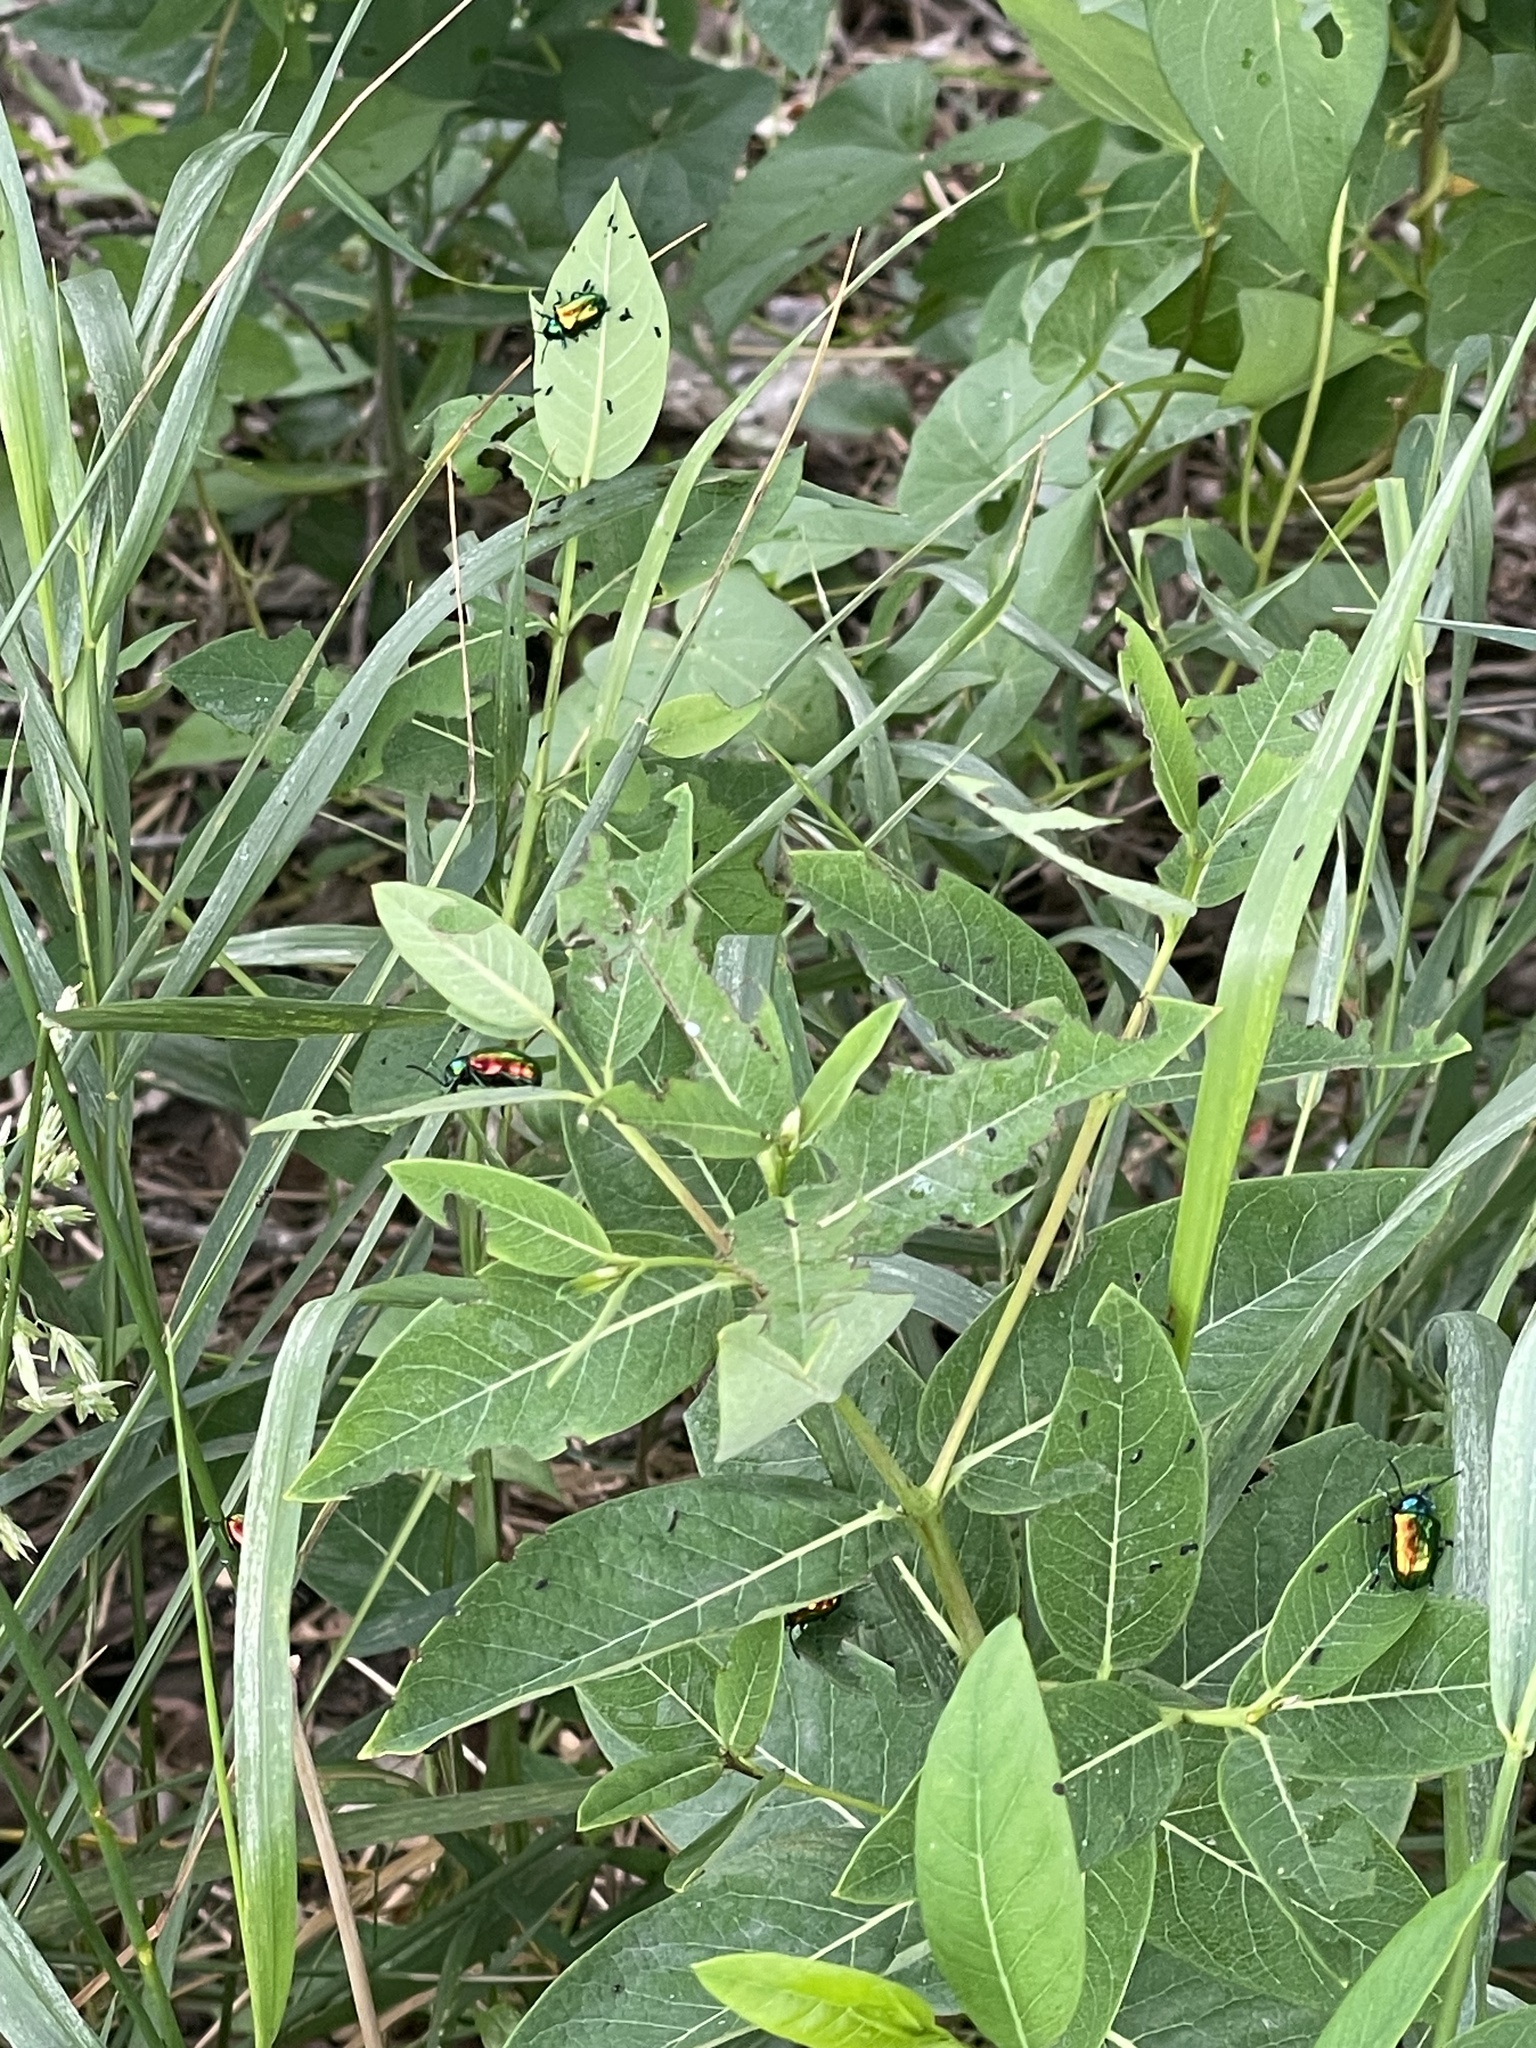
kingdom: Animalia
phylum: Arthropoda
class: Insecta
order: Coleoptera
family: Chrysomelidae
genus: Chrysochus
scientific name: Chrysochus auratus
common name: Dogbane leaf beetle
